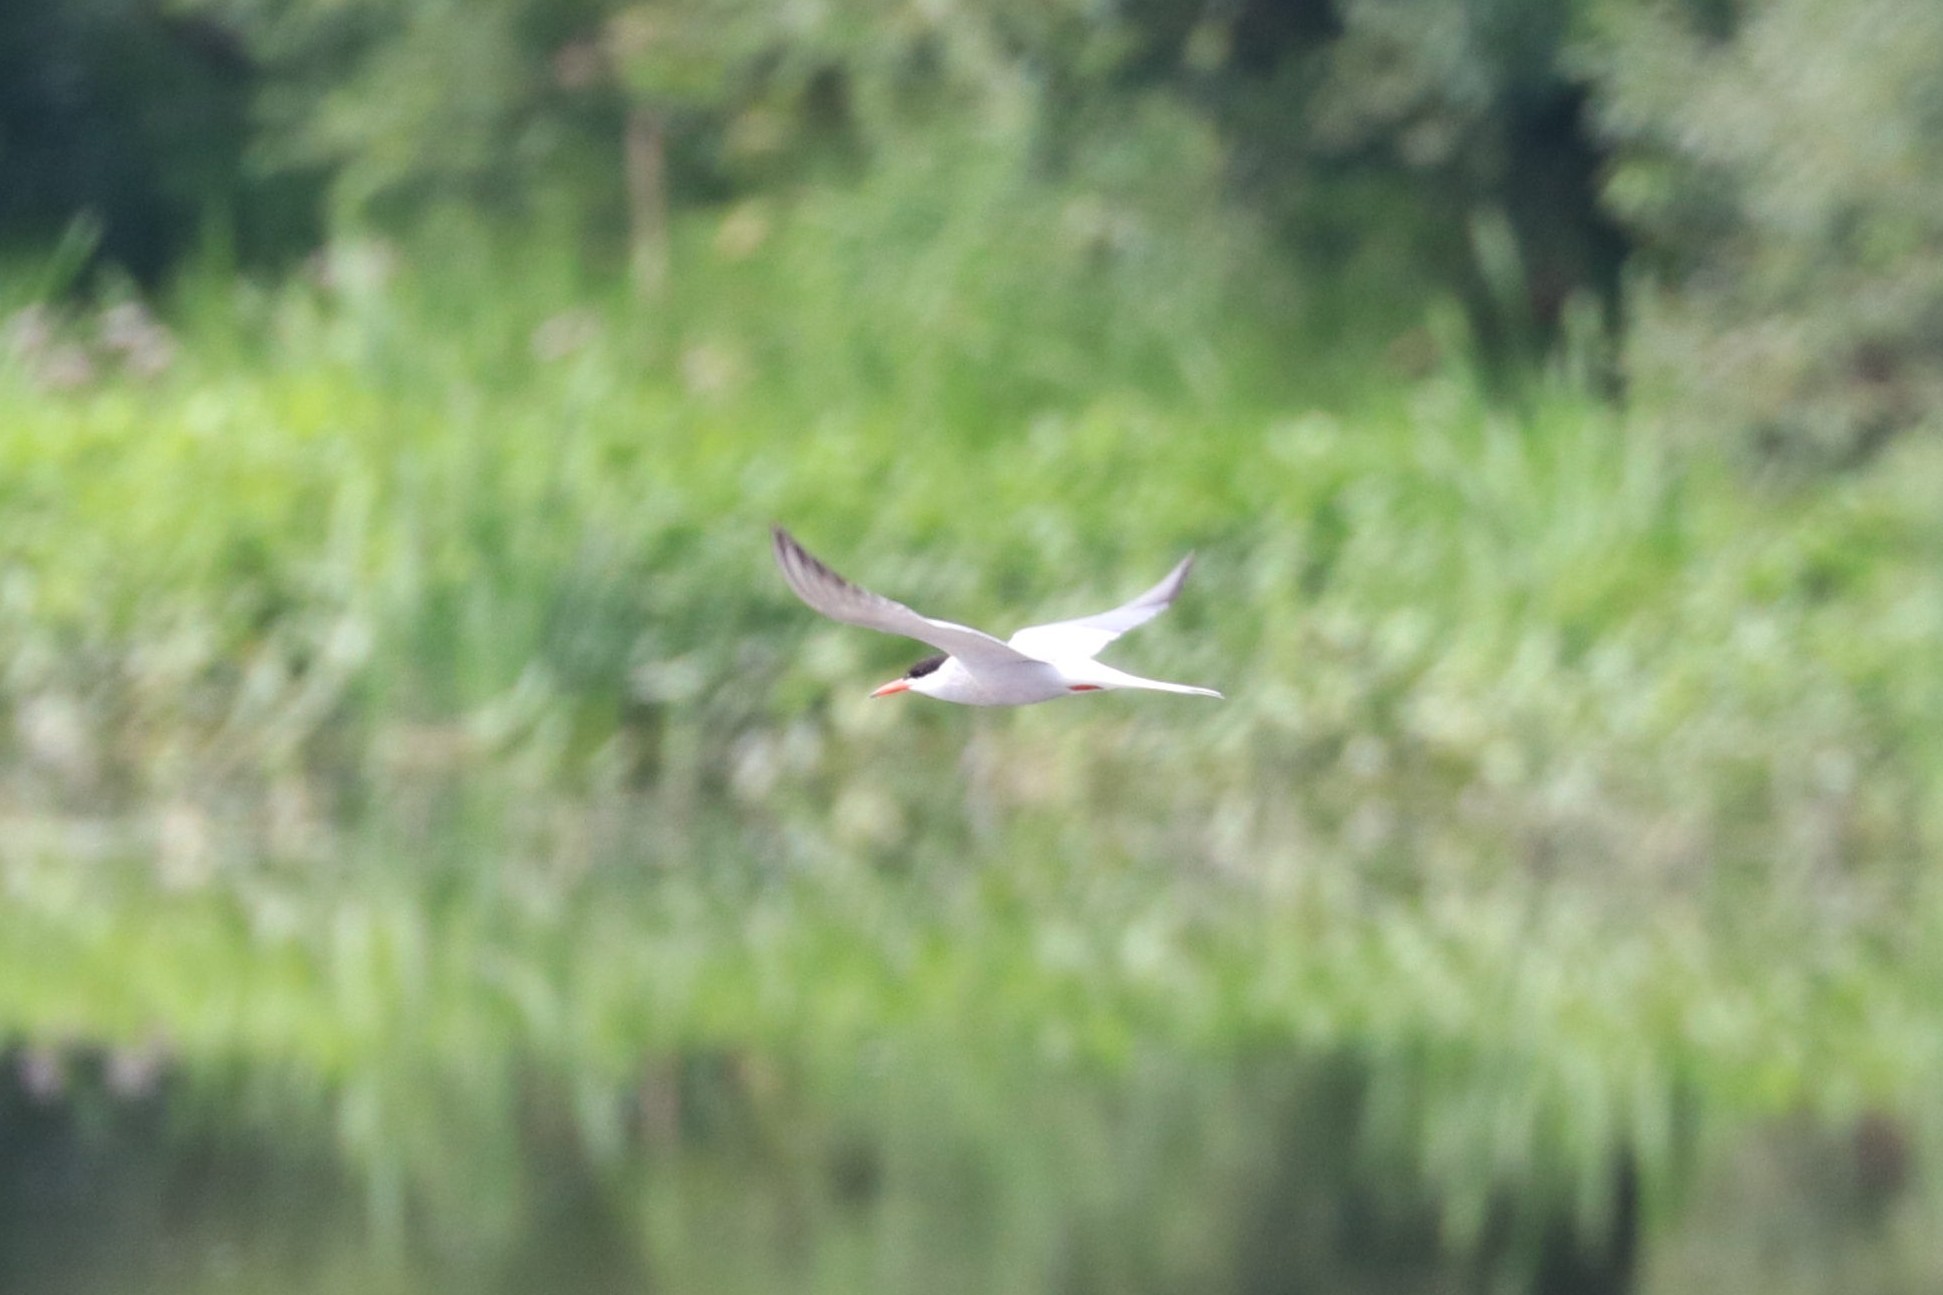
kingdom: Animalia
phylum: Chordata
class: Aves
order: Charadriiformes
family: Laridae
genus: Sterna
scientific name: Sterna hirundo
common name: Common tern
